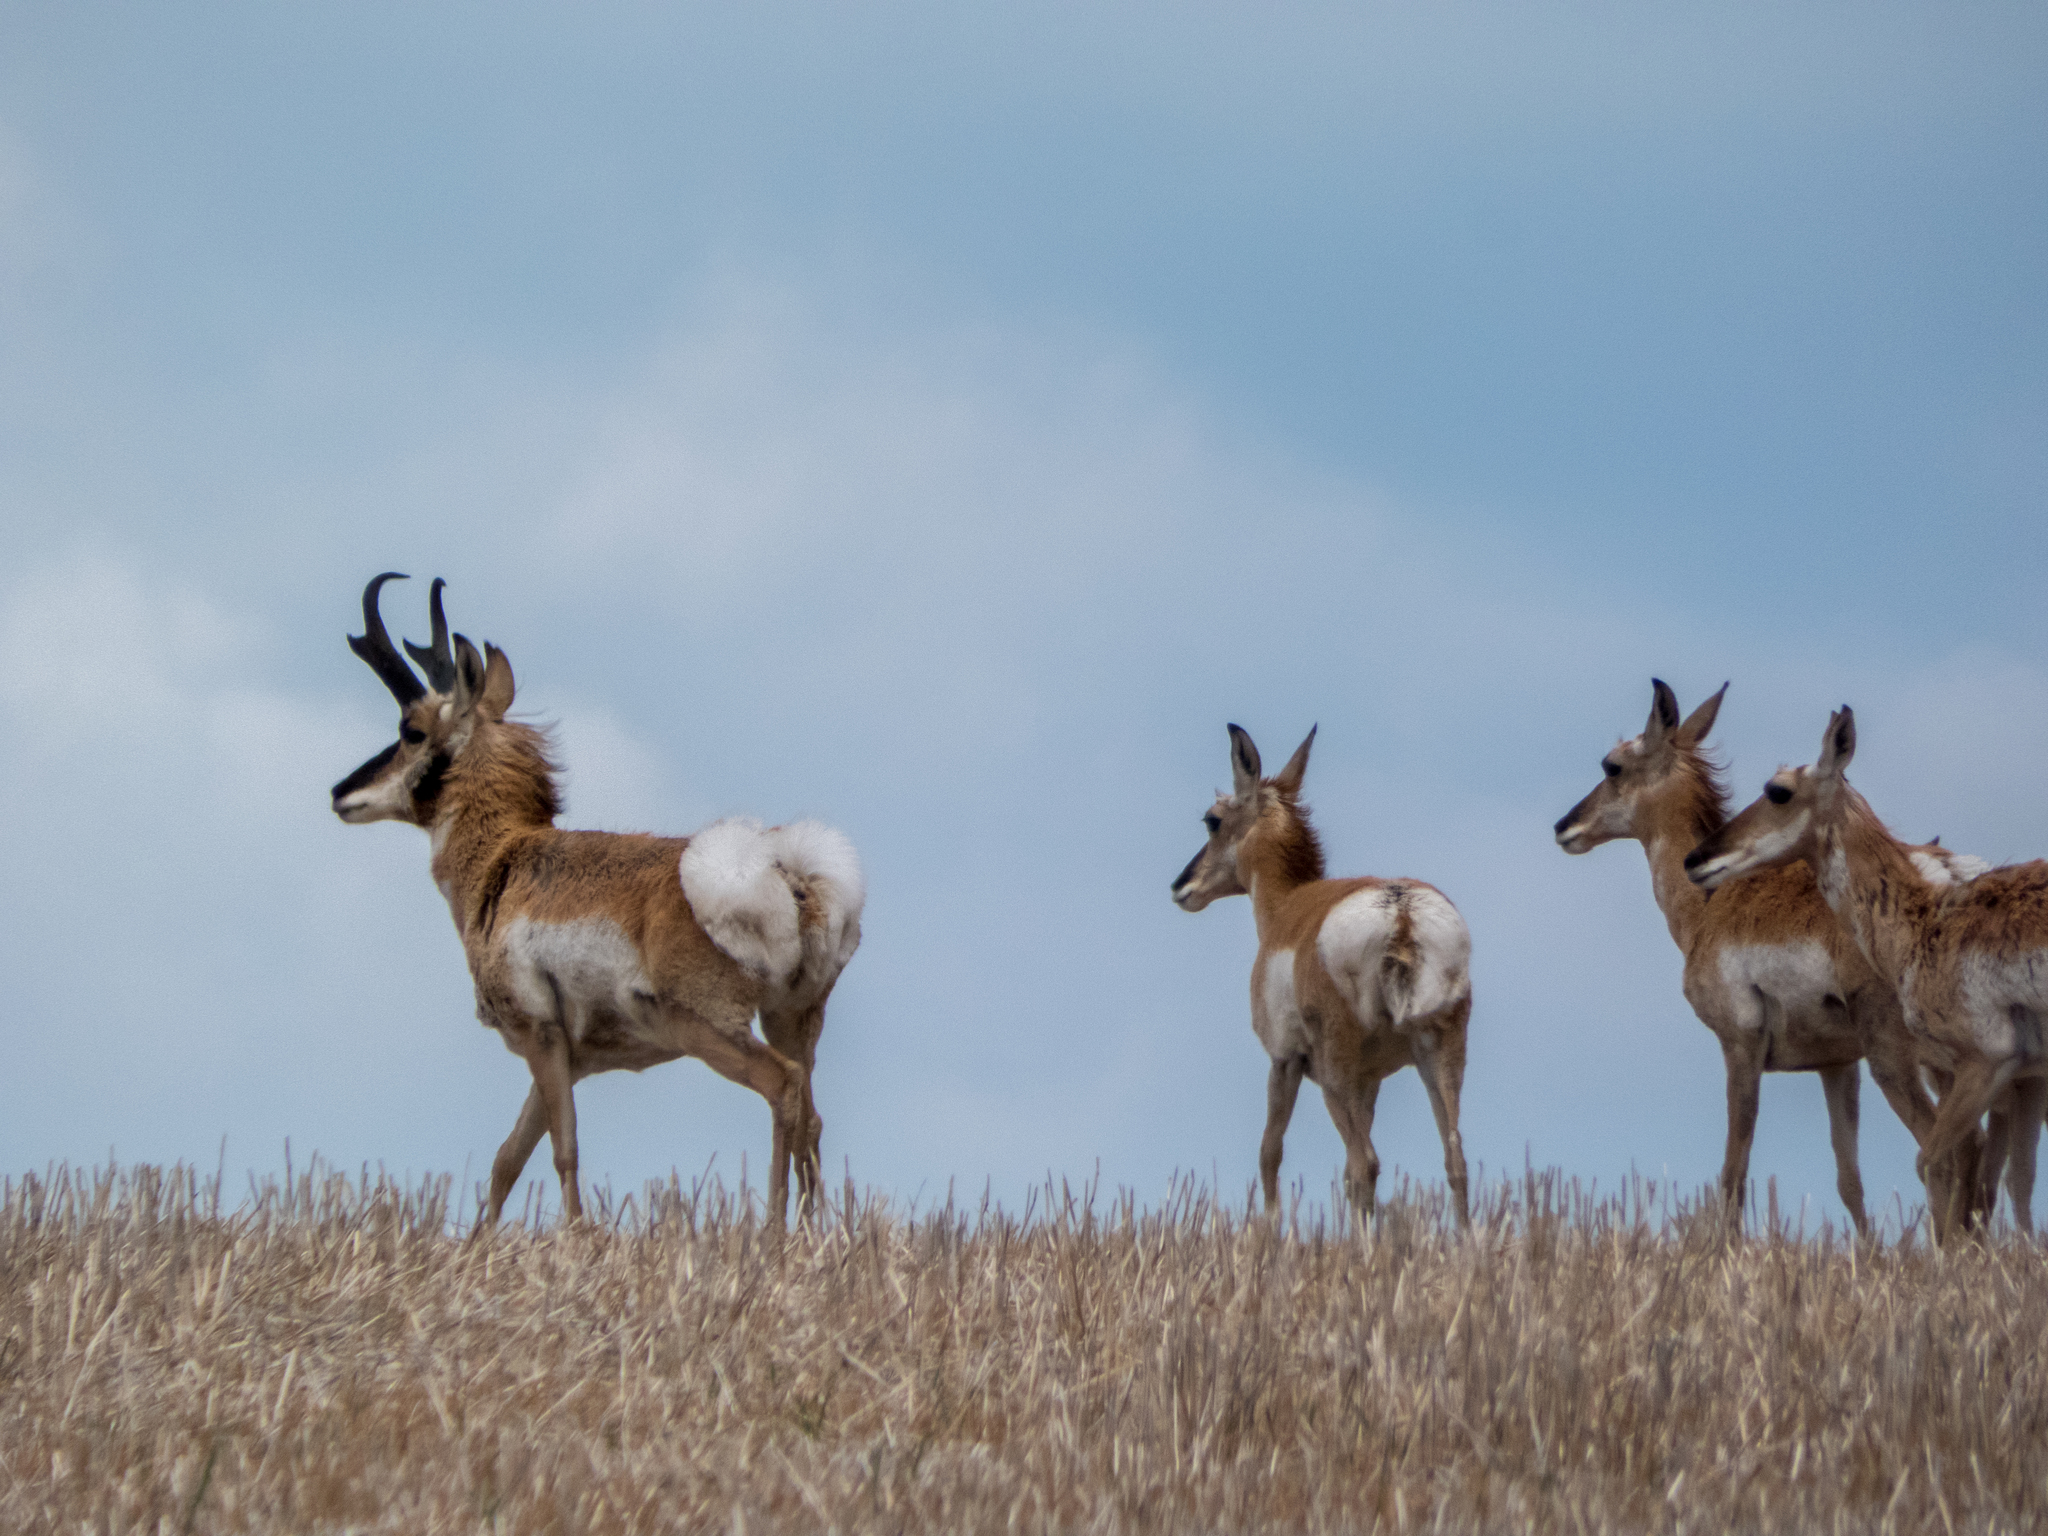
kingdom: Animalia
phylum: Chordata
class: Mammalia
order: Artiodactyla
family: Antilocapridae
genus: Antilocapra
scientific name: Antilocapra americana
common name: Pronghorn
